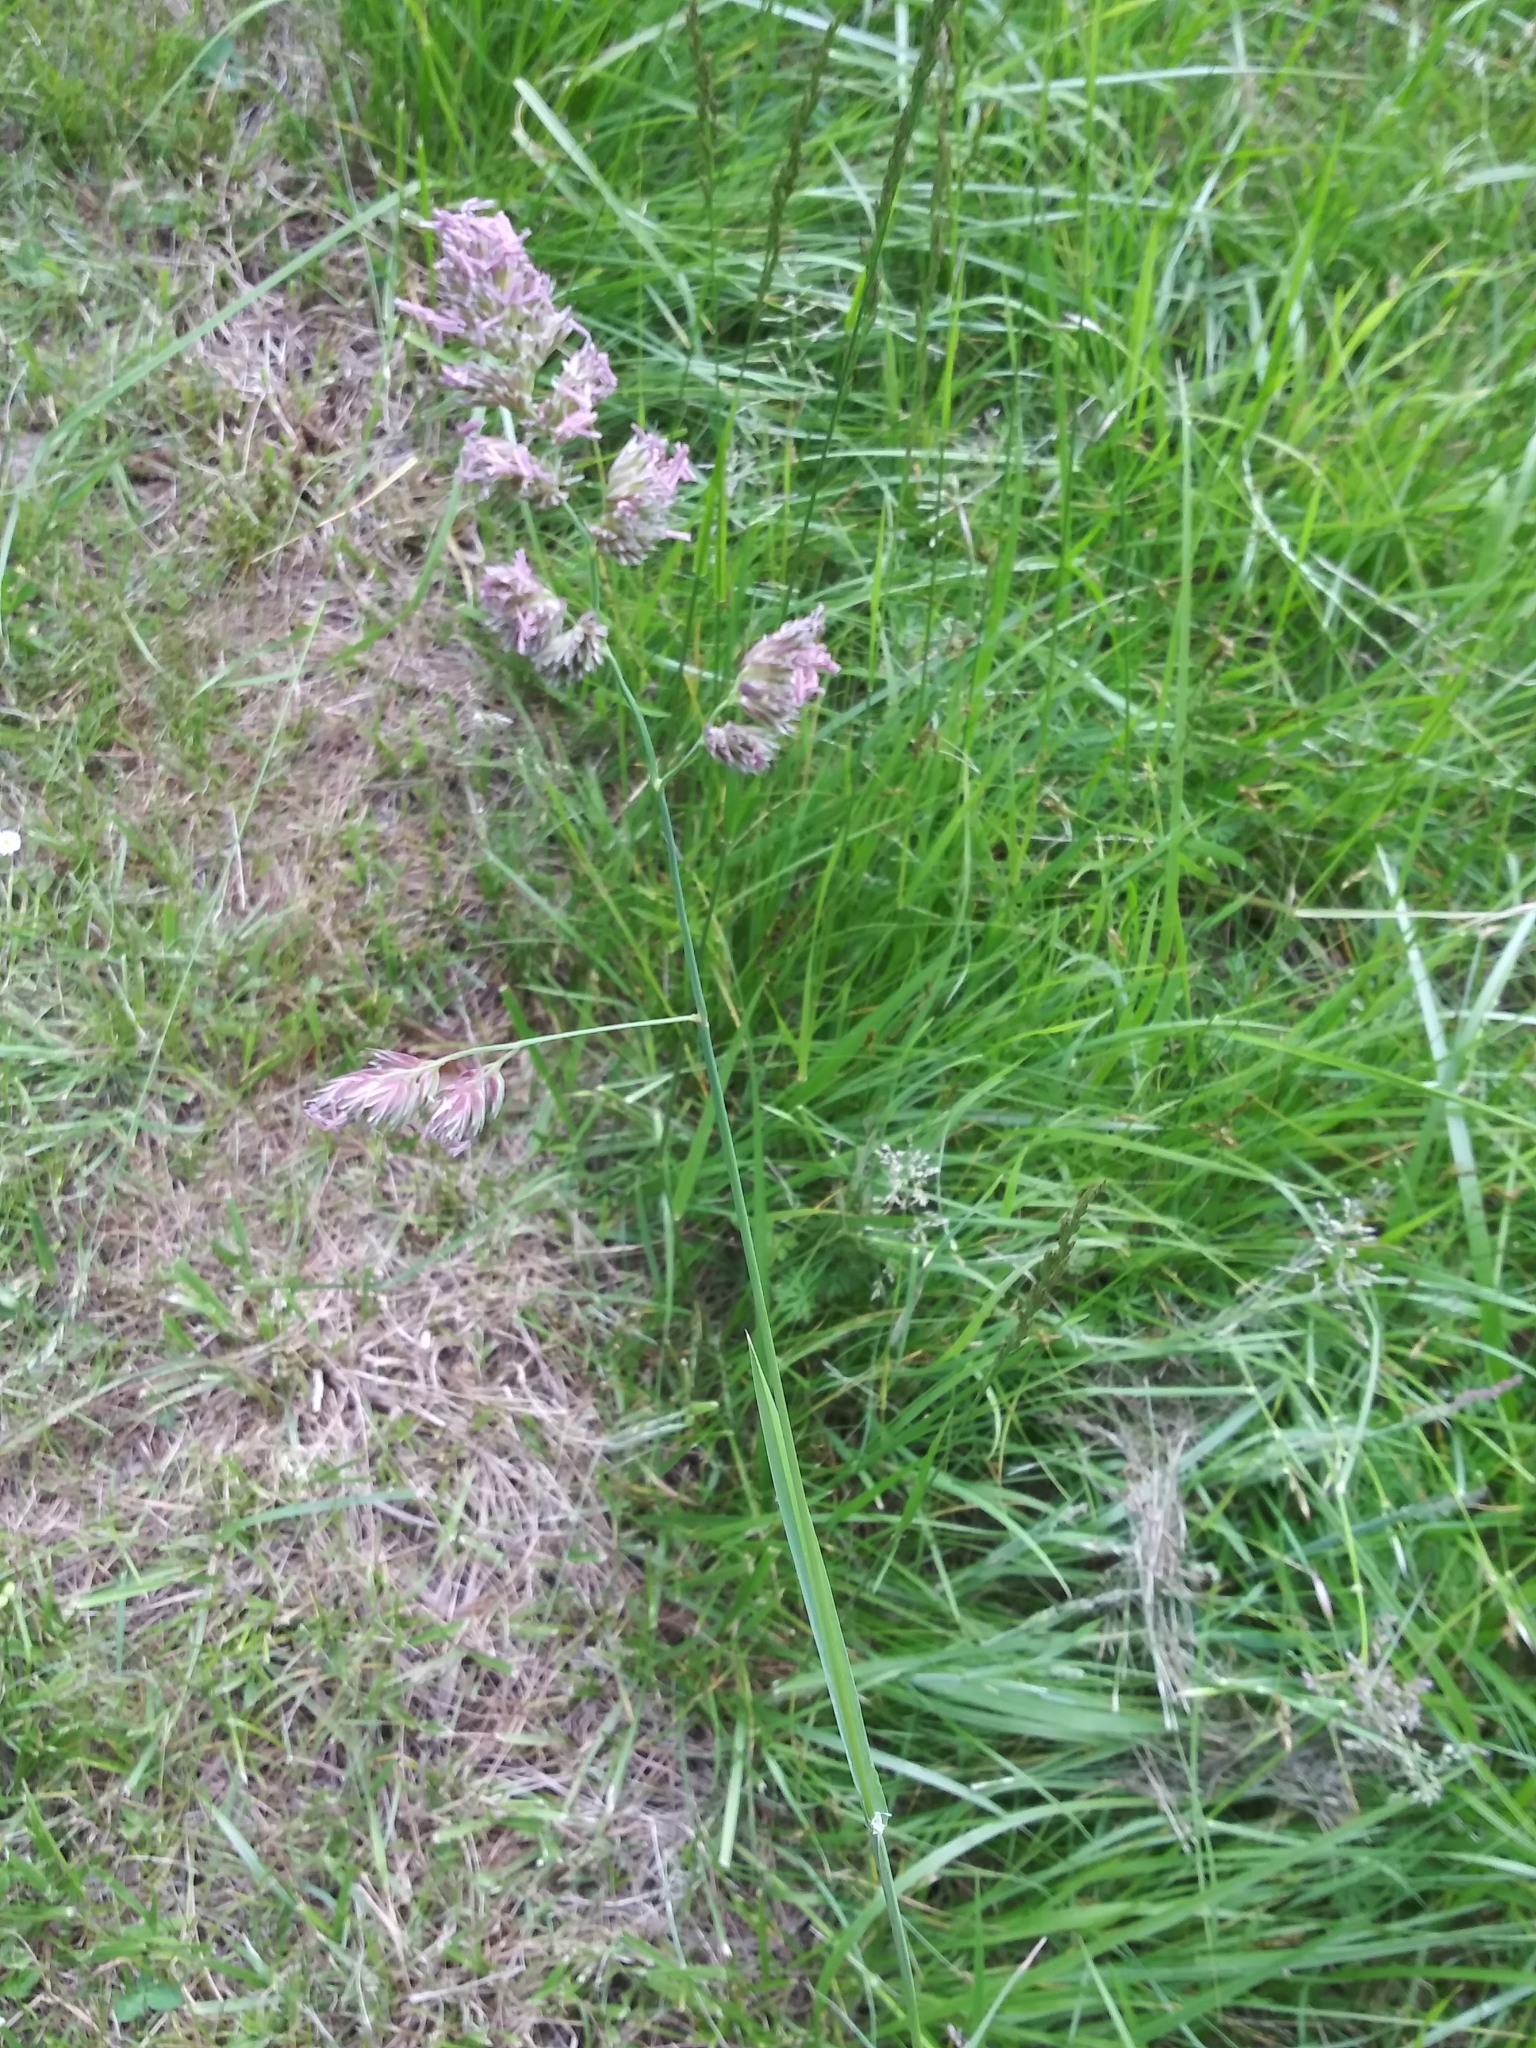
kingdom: Plantae
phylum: Tracheophyta
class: Liliopsida
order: Poales
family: Poaceae
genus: Dactylis
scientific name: Dactylis glomerata
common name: Orchardgrass
